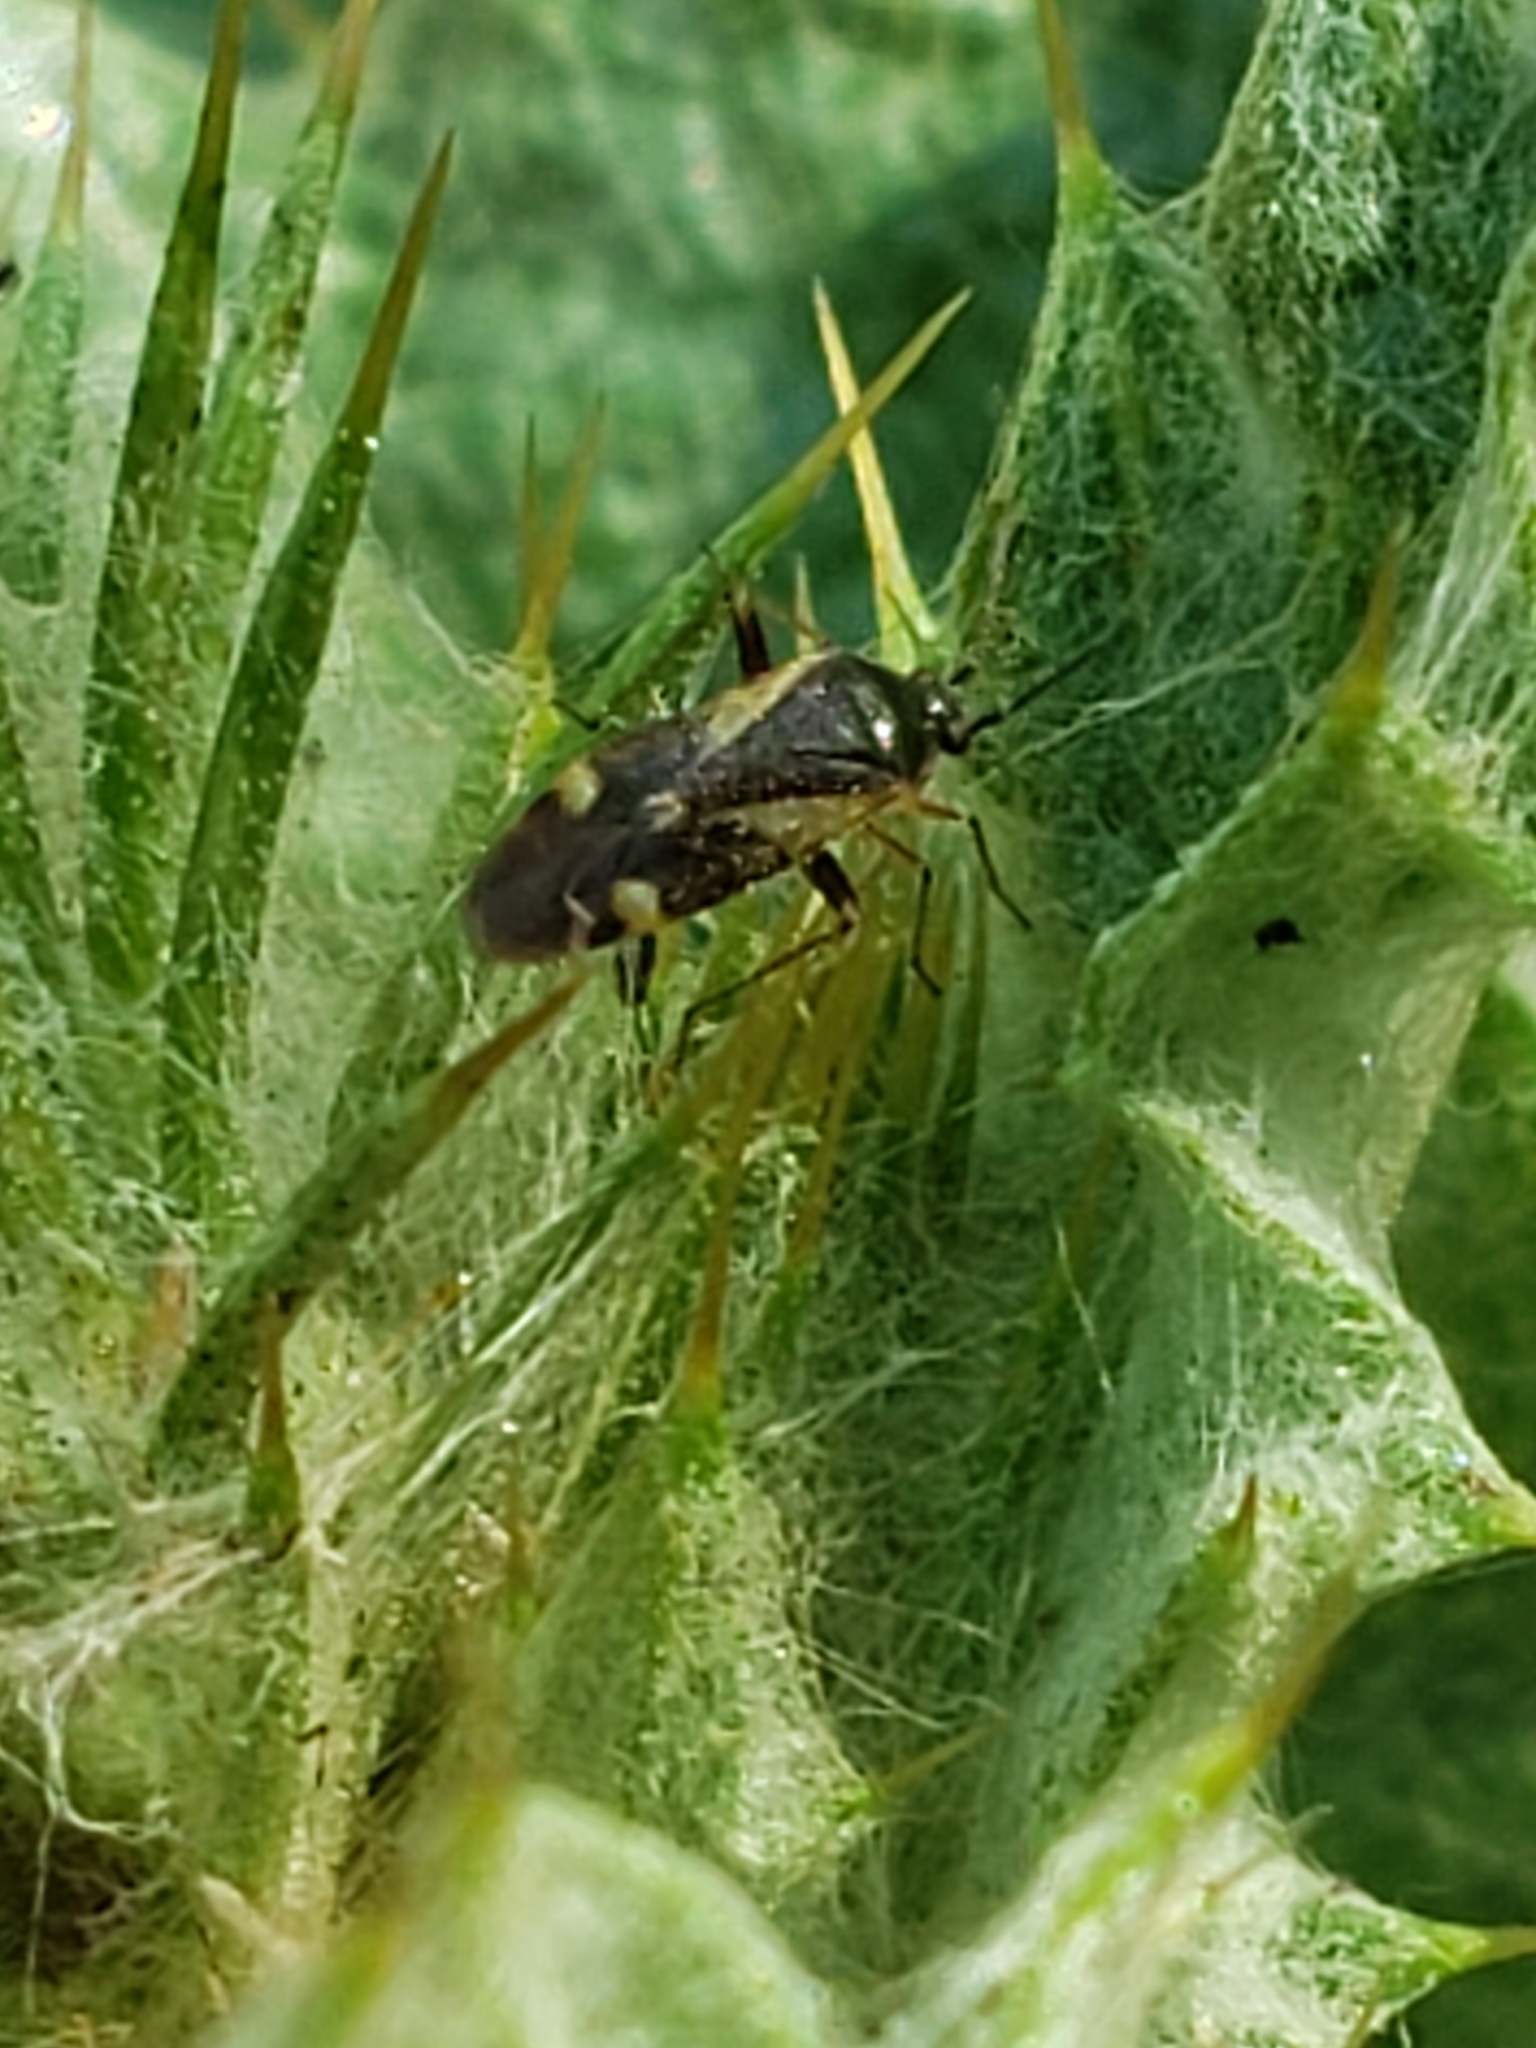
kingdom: Animalia
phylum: Arthropoda
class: Insecta
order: Hemiptera
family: Miridae
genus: Plagiognathus
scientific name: Plagiognathus obscurus
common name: Obscure plant bug
